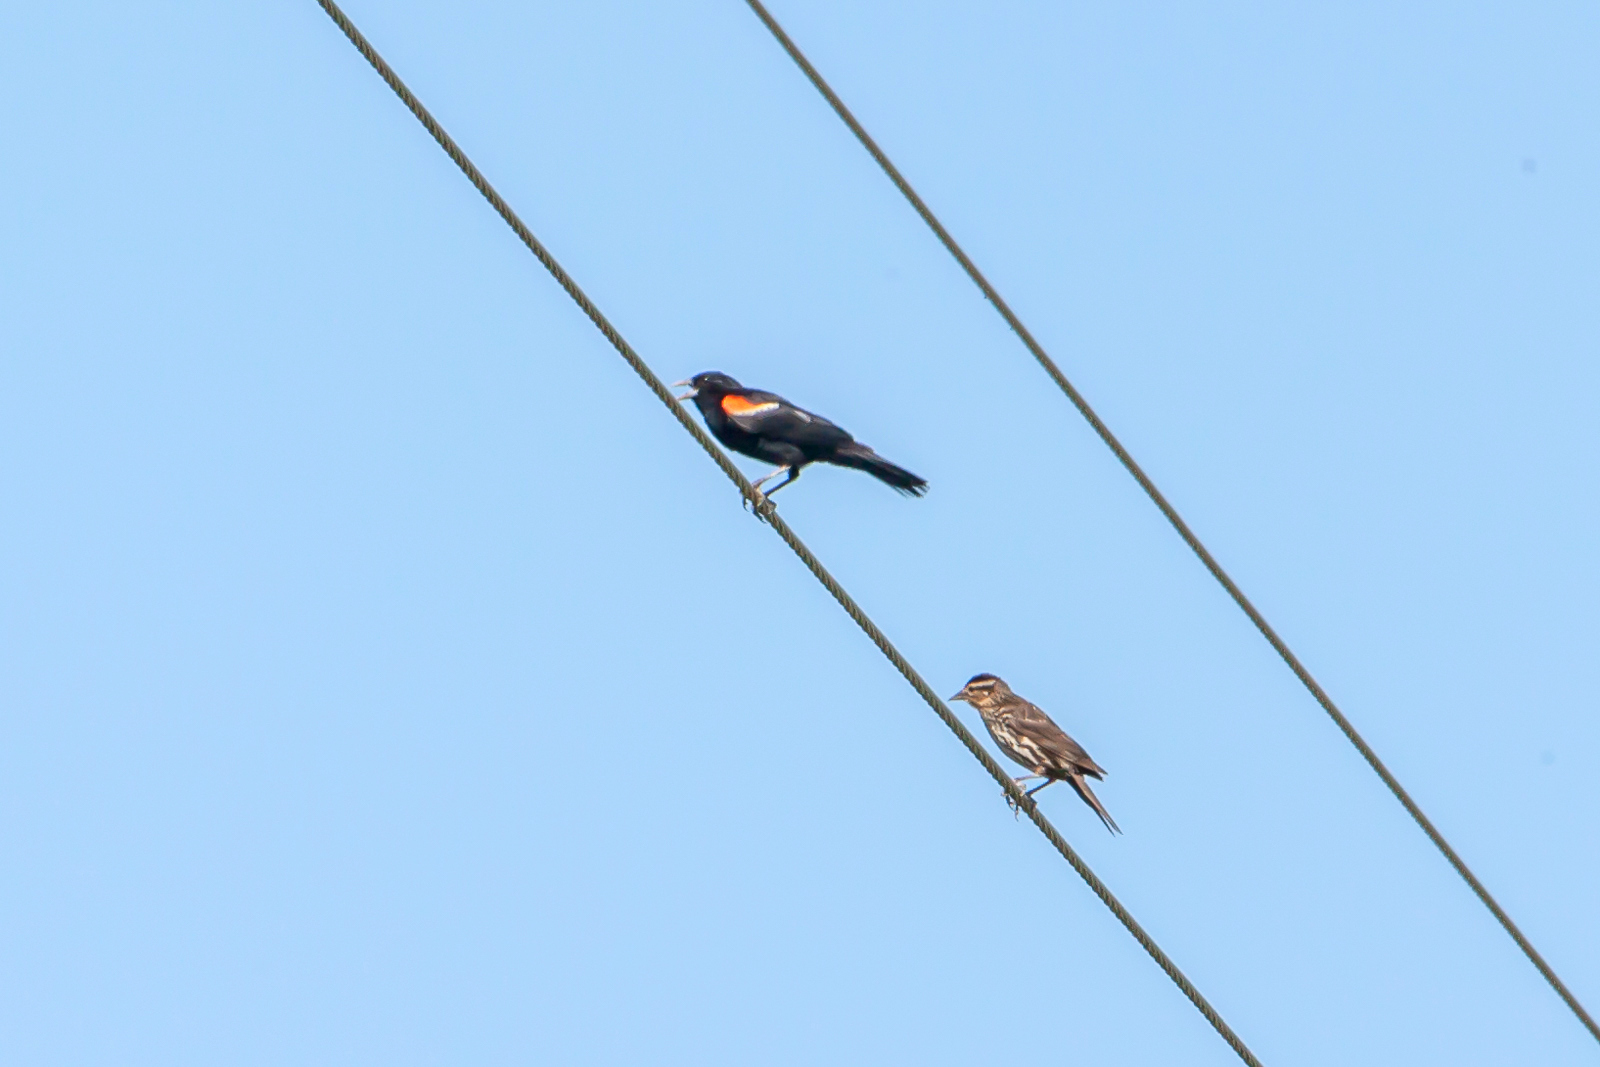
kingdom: Animalia
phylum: Chordata
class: Aves
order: Passeriformes
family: Icteridae
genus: Agelaius
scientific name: Agelaius phoeniceus
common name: Red-winged blackbird
